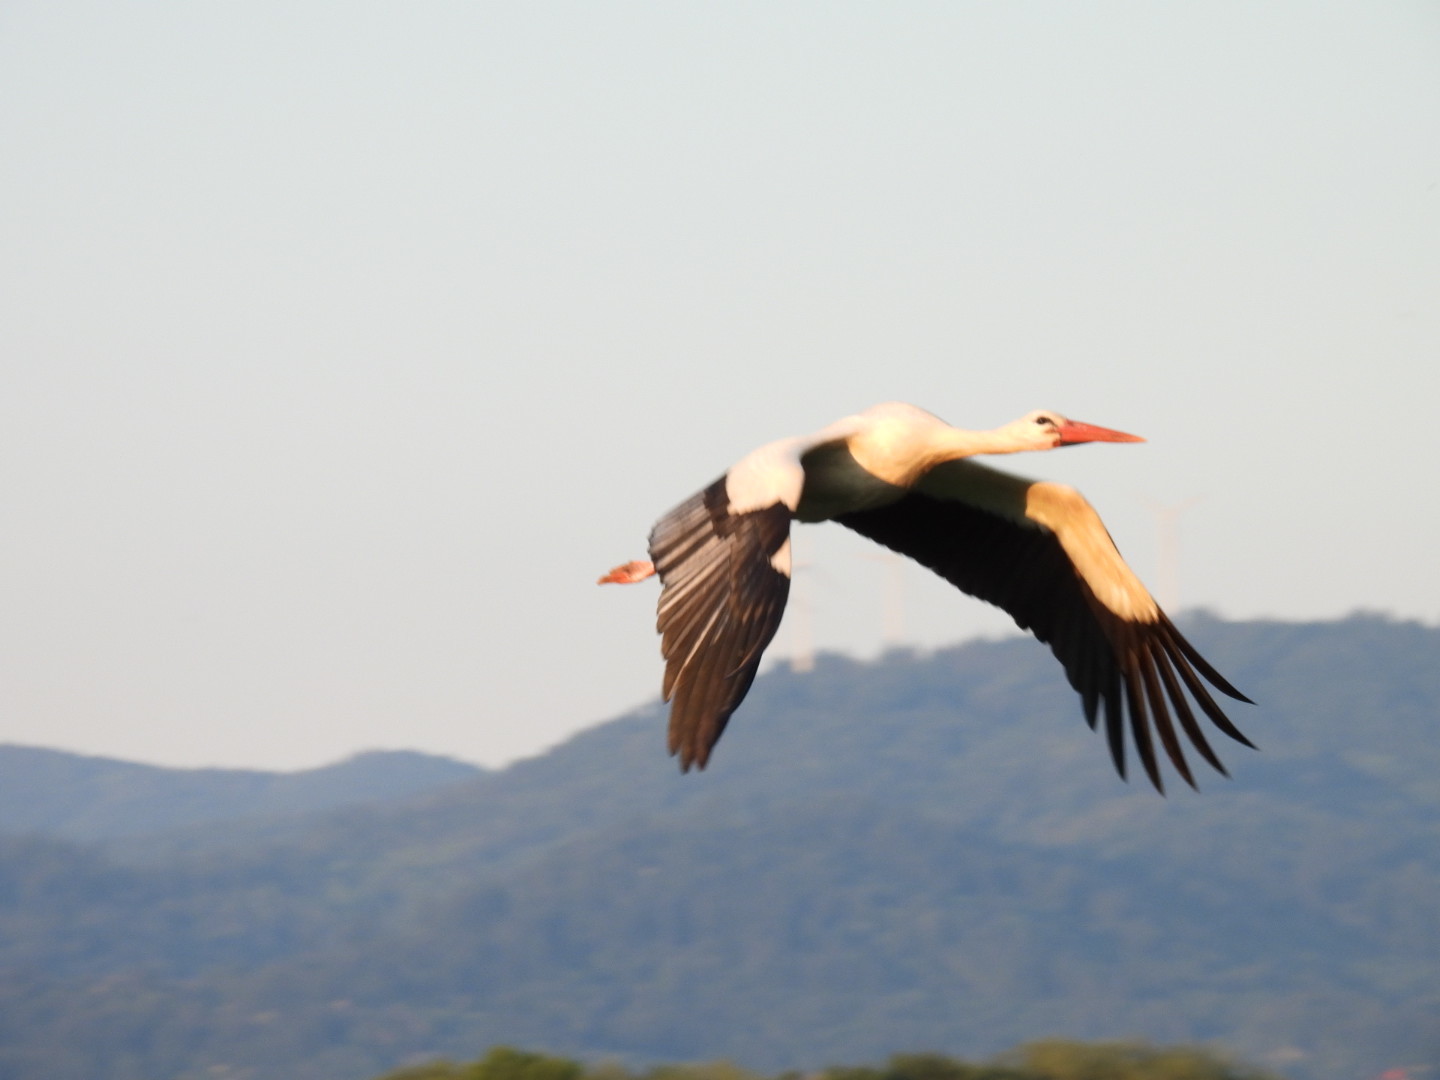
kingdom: Animalia
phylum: Chordata
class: Aves
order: Ciconiiformes
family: Ciconiidae
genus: Ciconia
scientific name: Ciconia ciconia
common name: White stork
